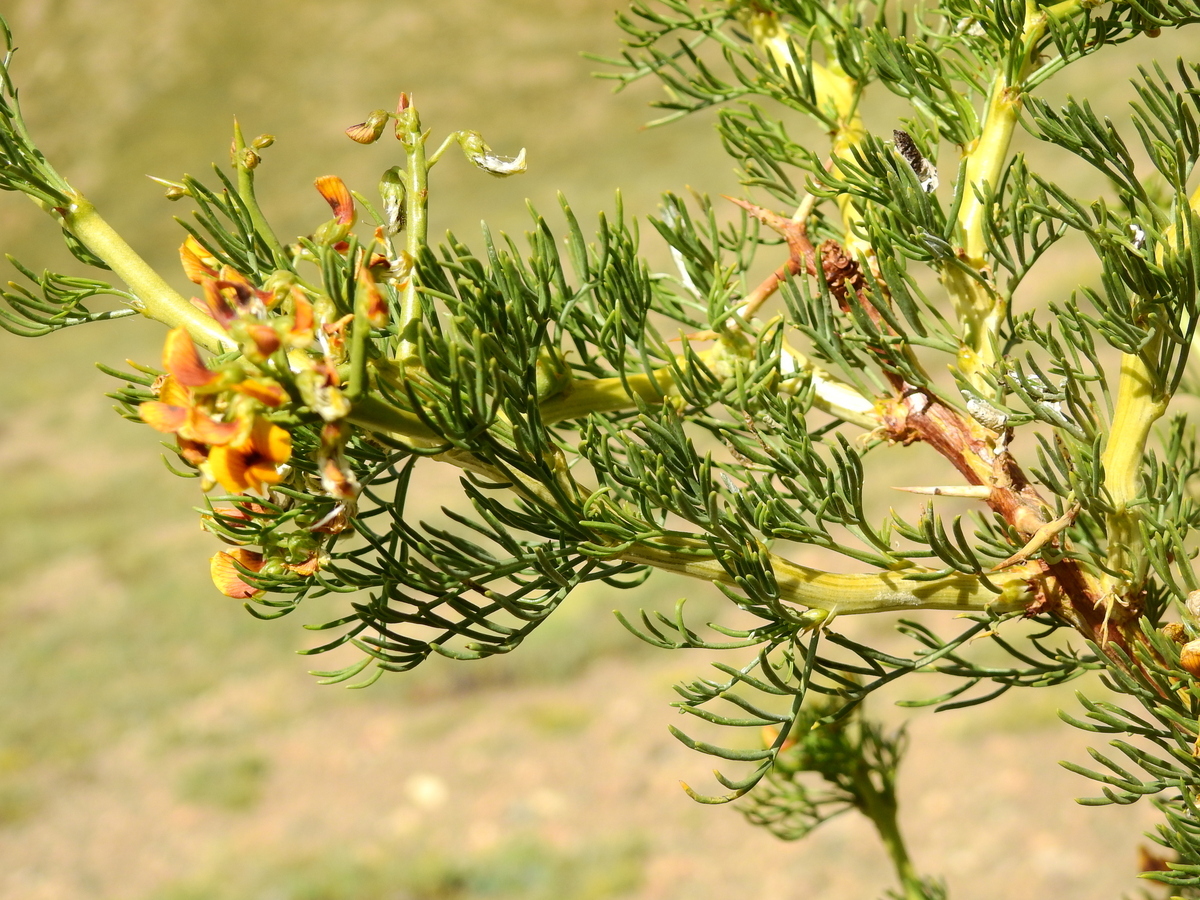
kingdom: Plantae
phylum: Tracheophyta
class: Magnoliopsida
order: Fabales
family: Fabaceae
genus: Adesmia
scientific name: Adesmia pinifolia
